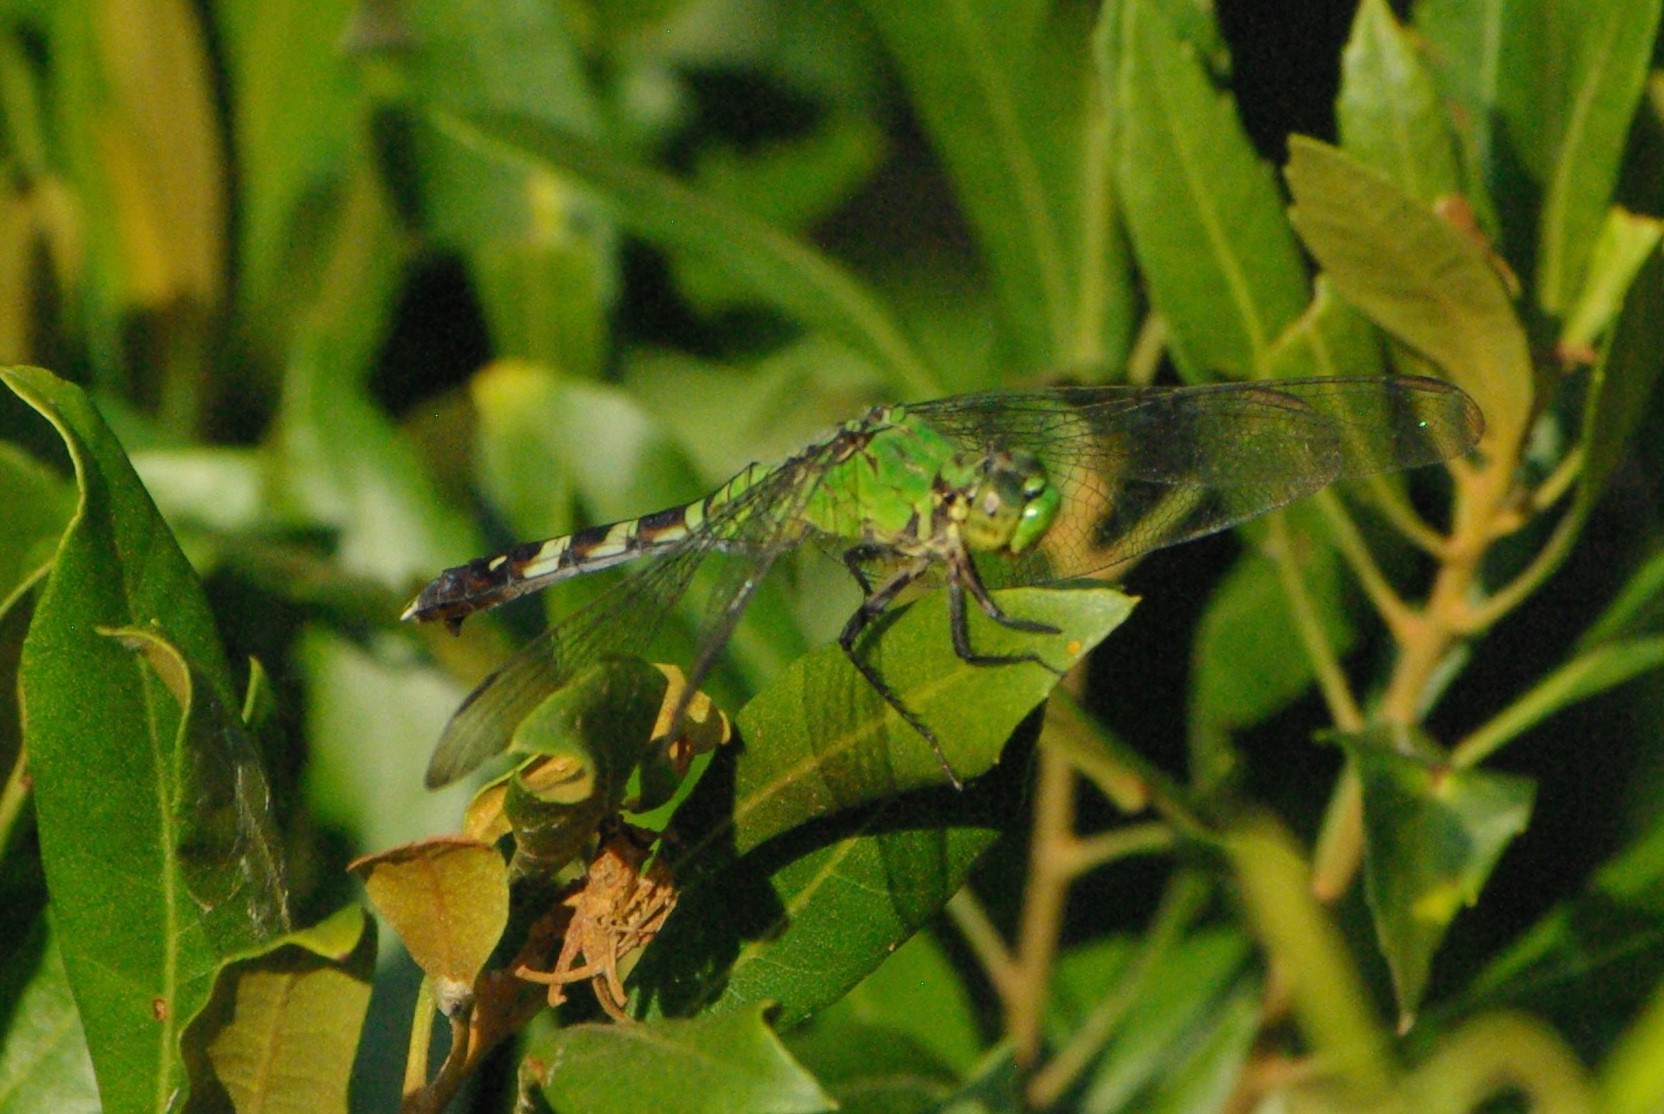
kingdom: Animalia
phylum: Arthropoda
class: Insecta
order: Odonata
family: Libellulidae
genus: Erythemis
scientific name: Erythemis simplicicollis
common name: Eastern pondhawk
